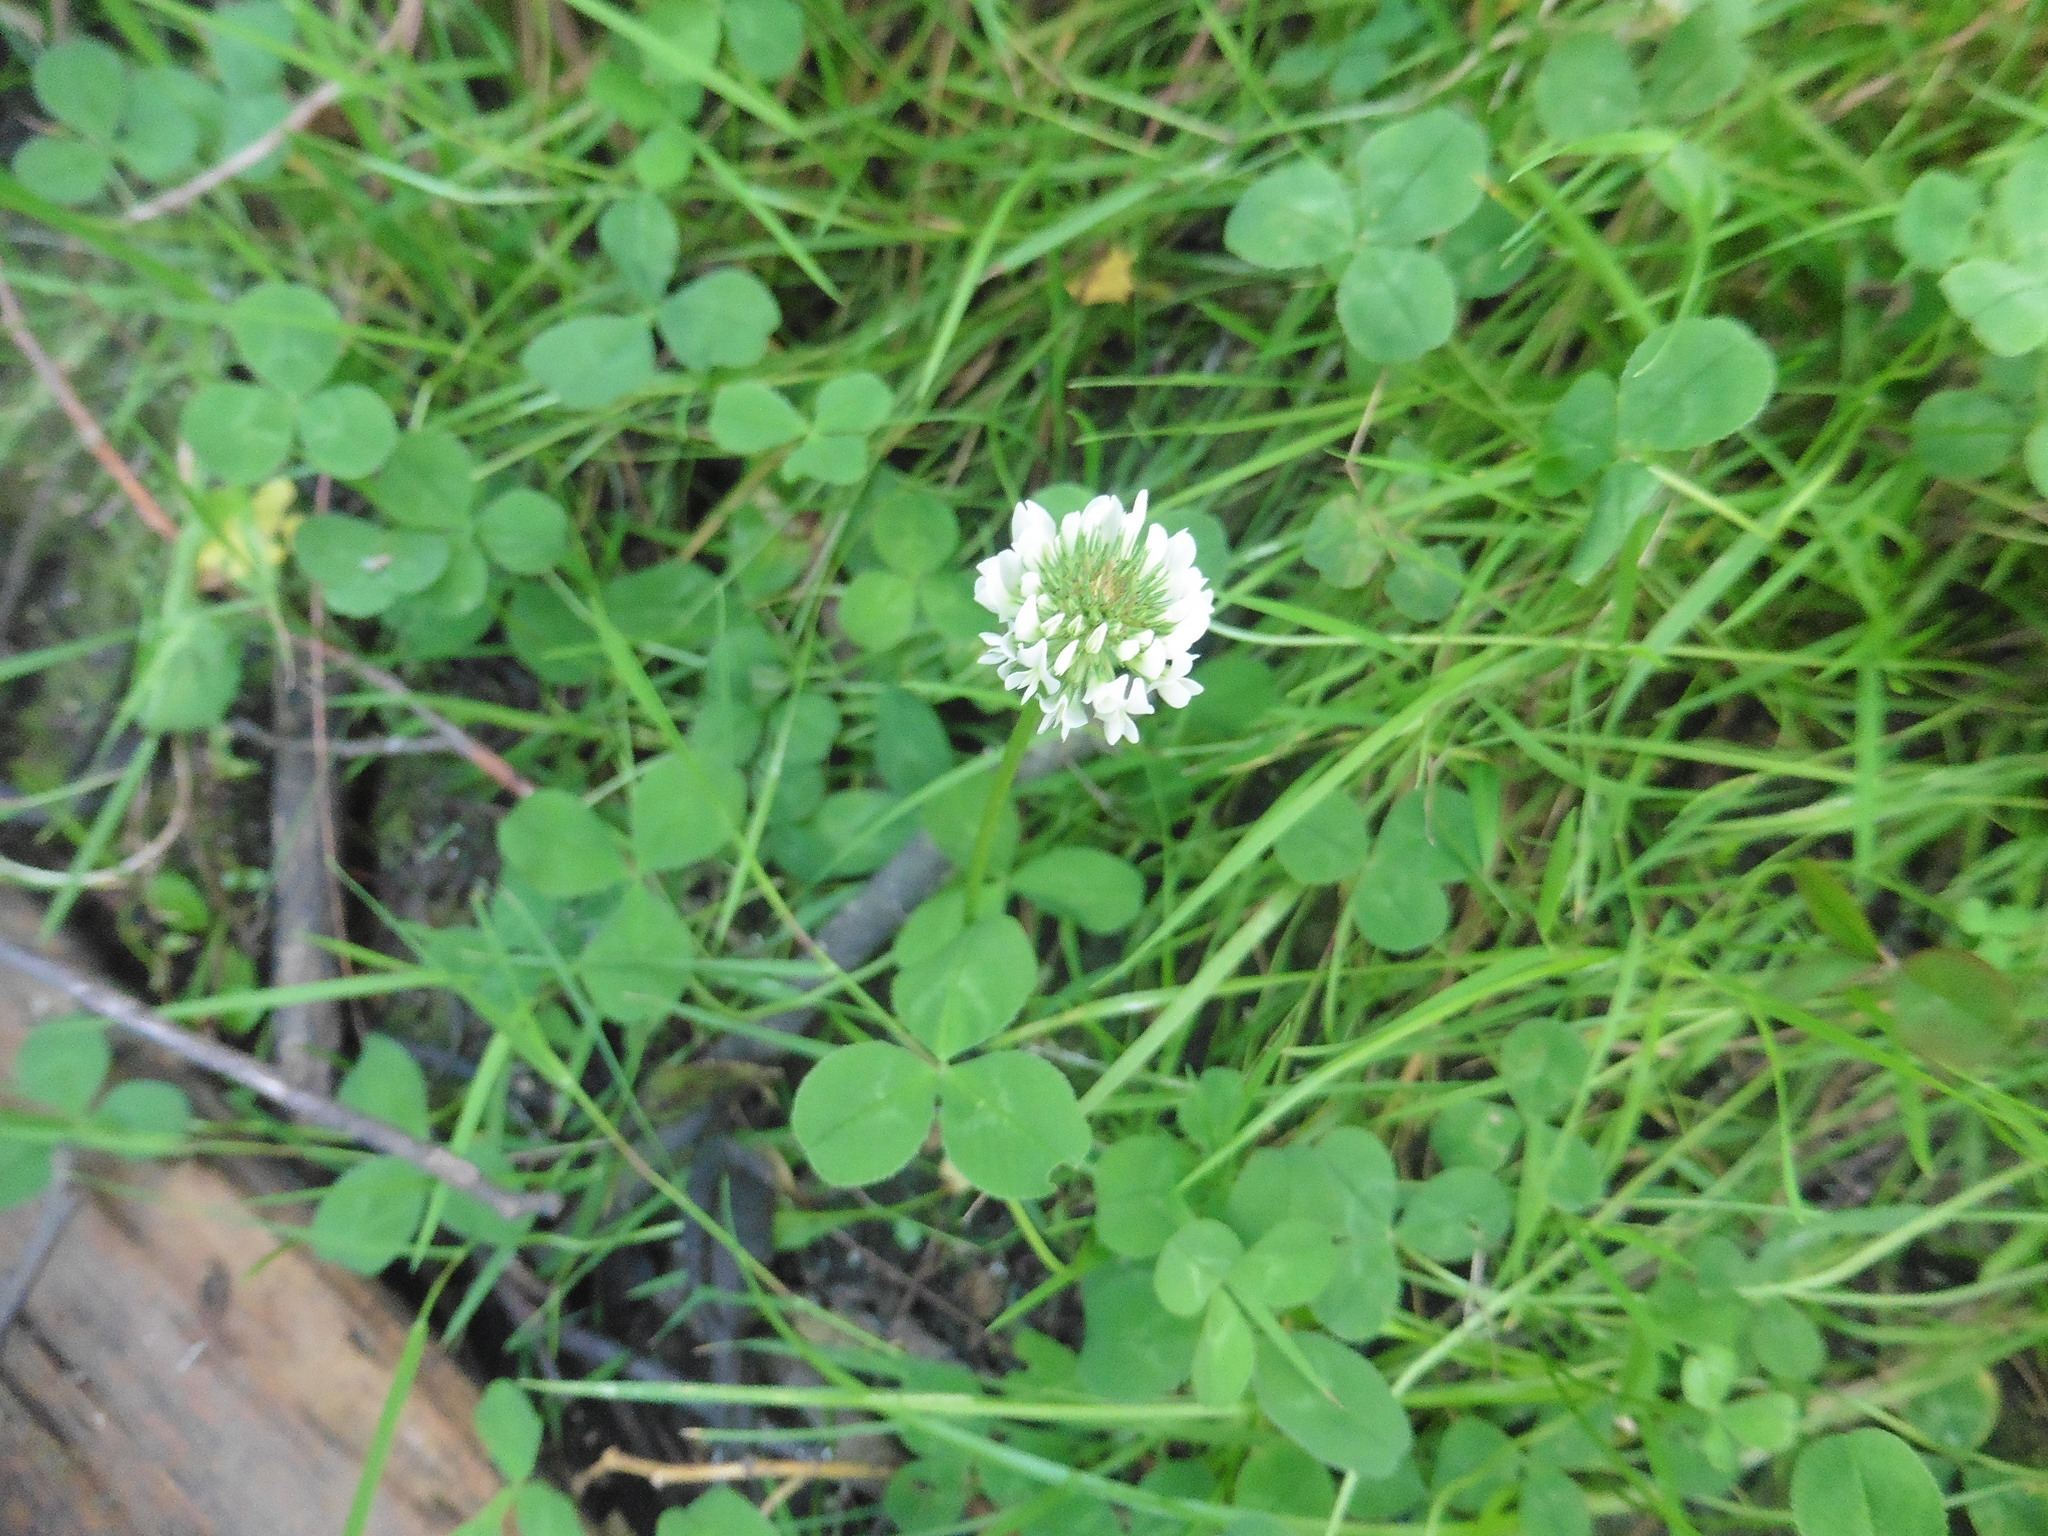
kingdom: Plantae
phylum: Tracheophyta
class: Magnoliopsida
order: Fabales
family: Fabaceae
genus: Trifolium
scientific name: Trifolium repens
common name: White clover
